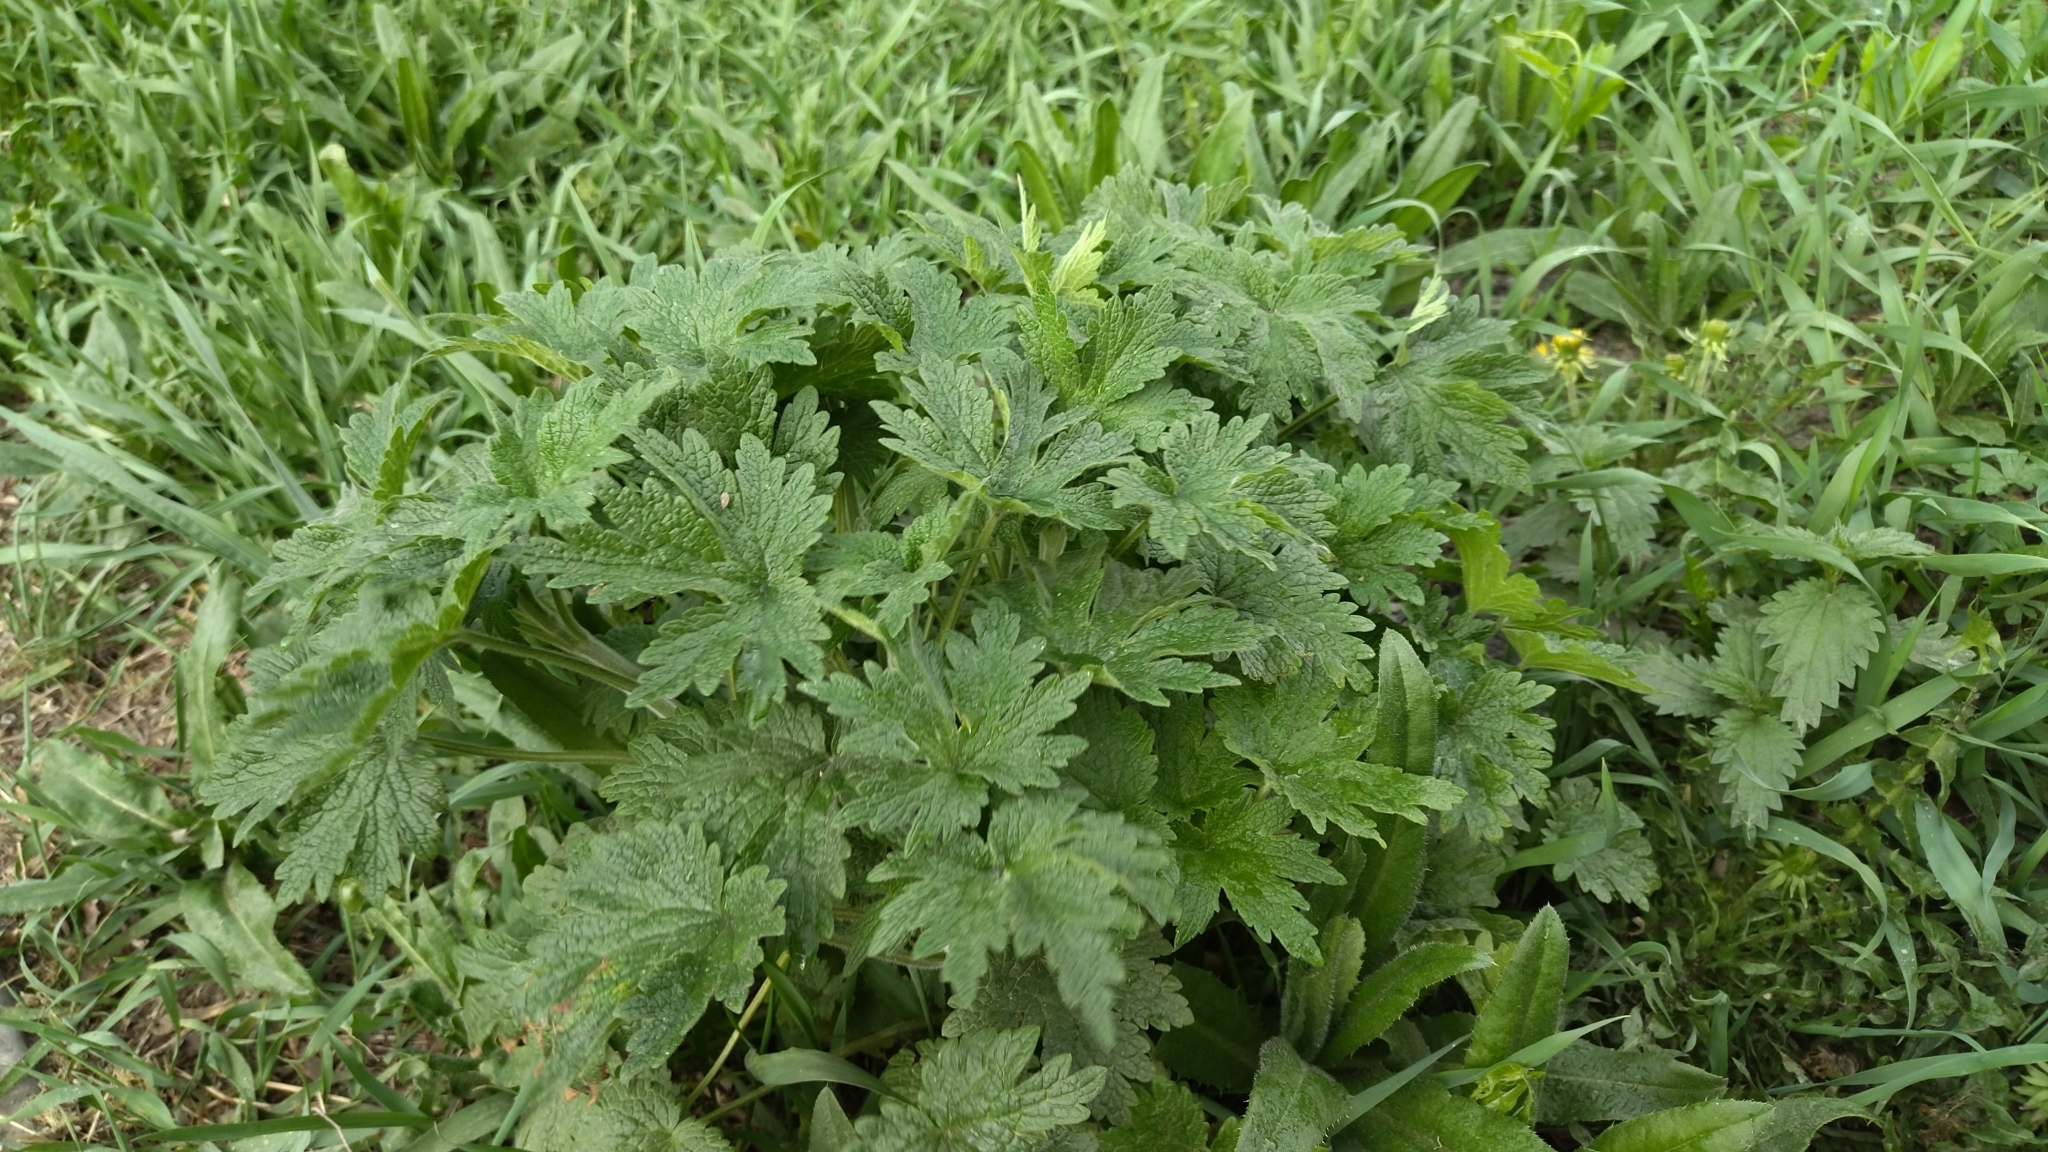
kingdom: Plantae
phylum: Tracheophyta
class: Magnoliopsida
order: Lamiales
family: Lamiaceae
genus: Leonurus
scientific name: Leonurus quinquelobatus
